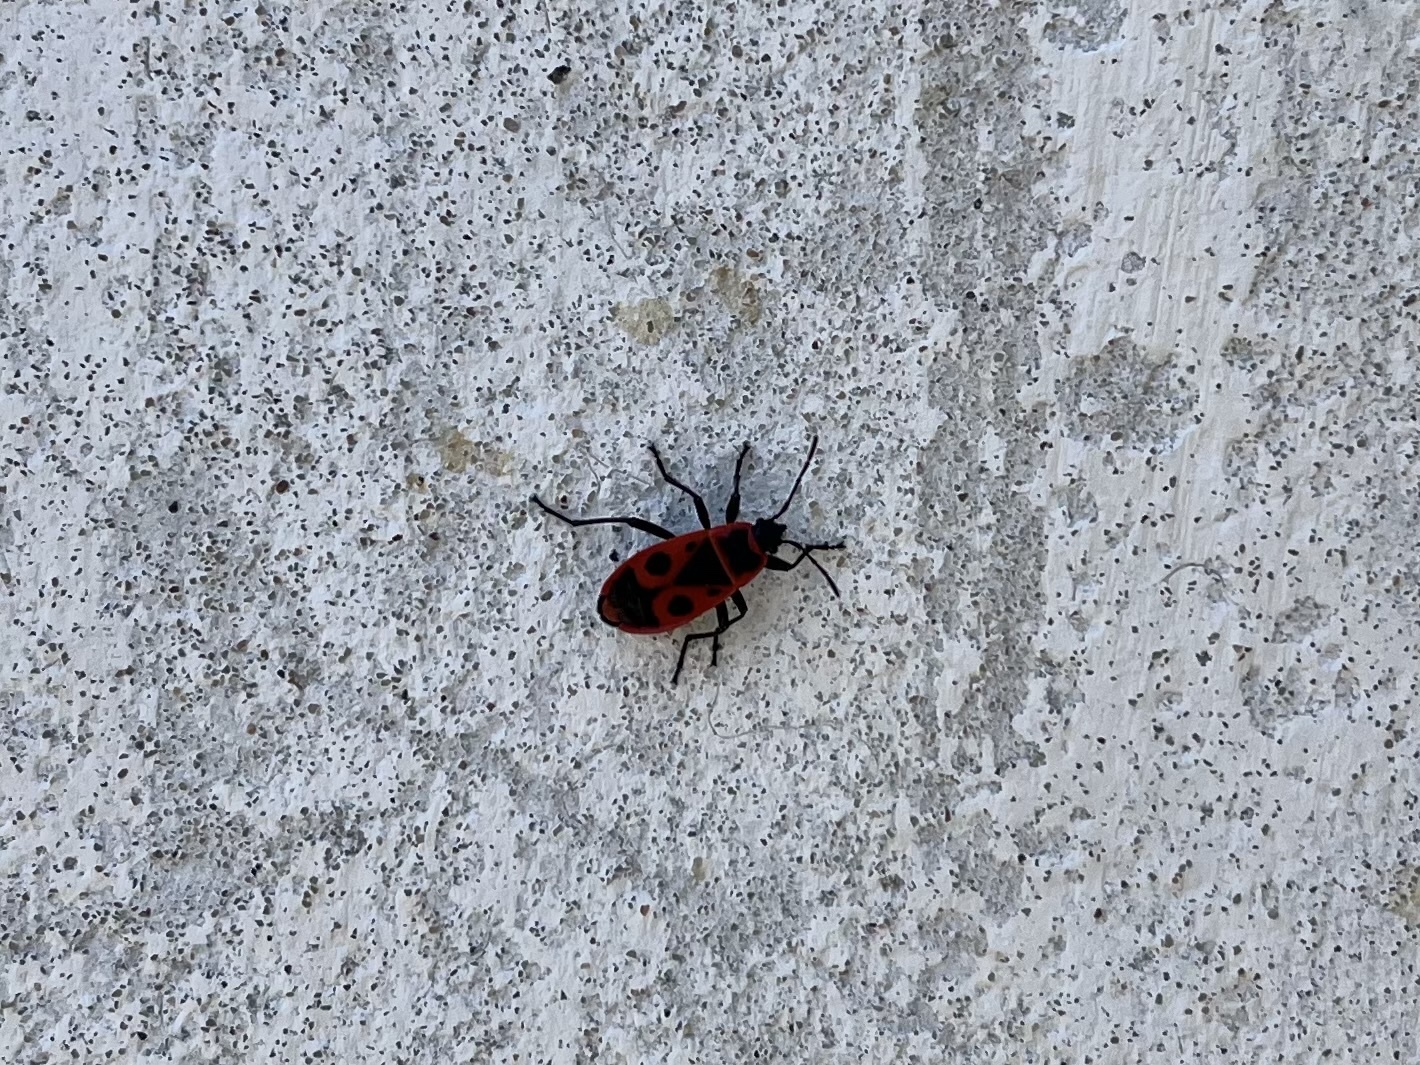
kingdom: Animalia
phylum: Arthropoda
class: Insecta
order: Hemiptera
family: Pyrrhocoridae
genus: Pyrrhocoris
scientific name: Pyrrhocoris apterus
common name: Firebug
